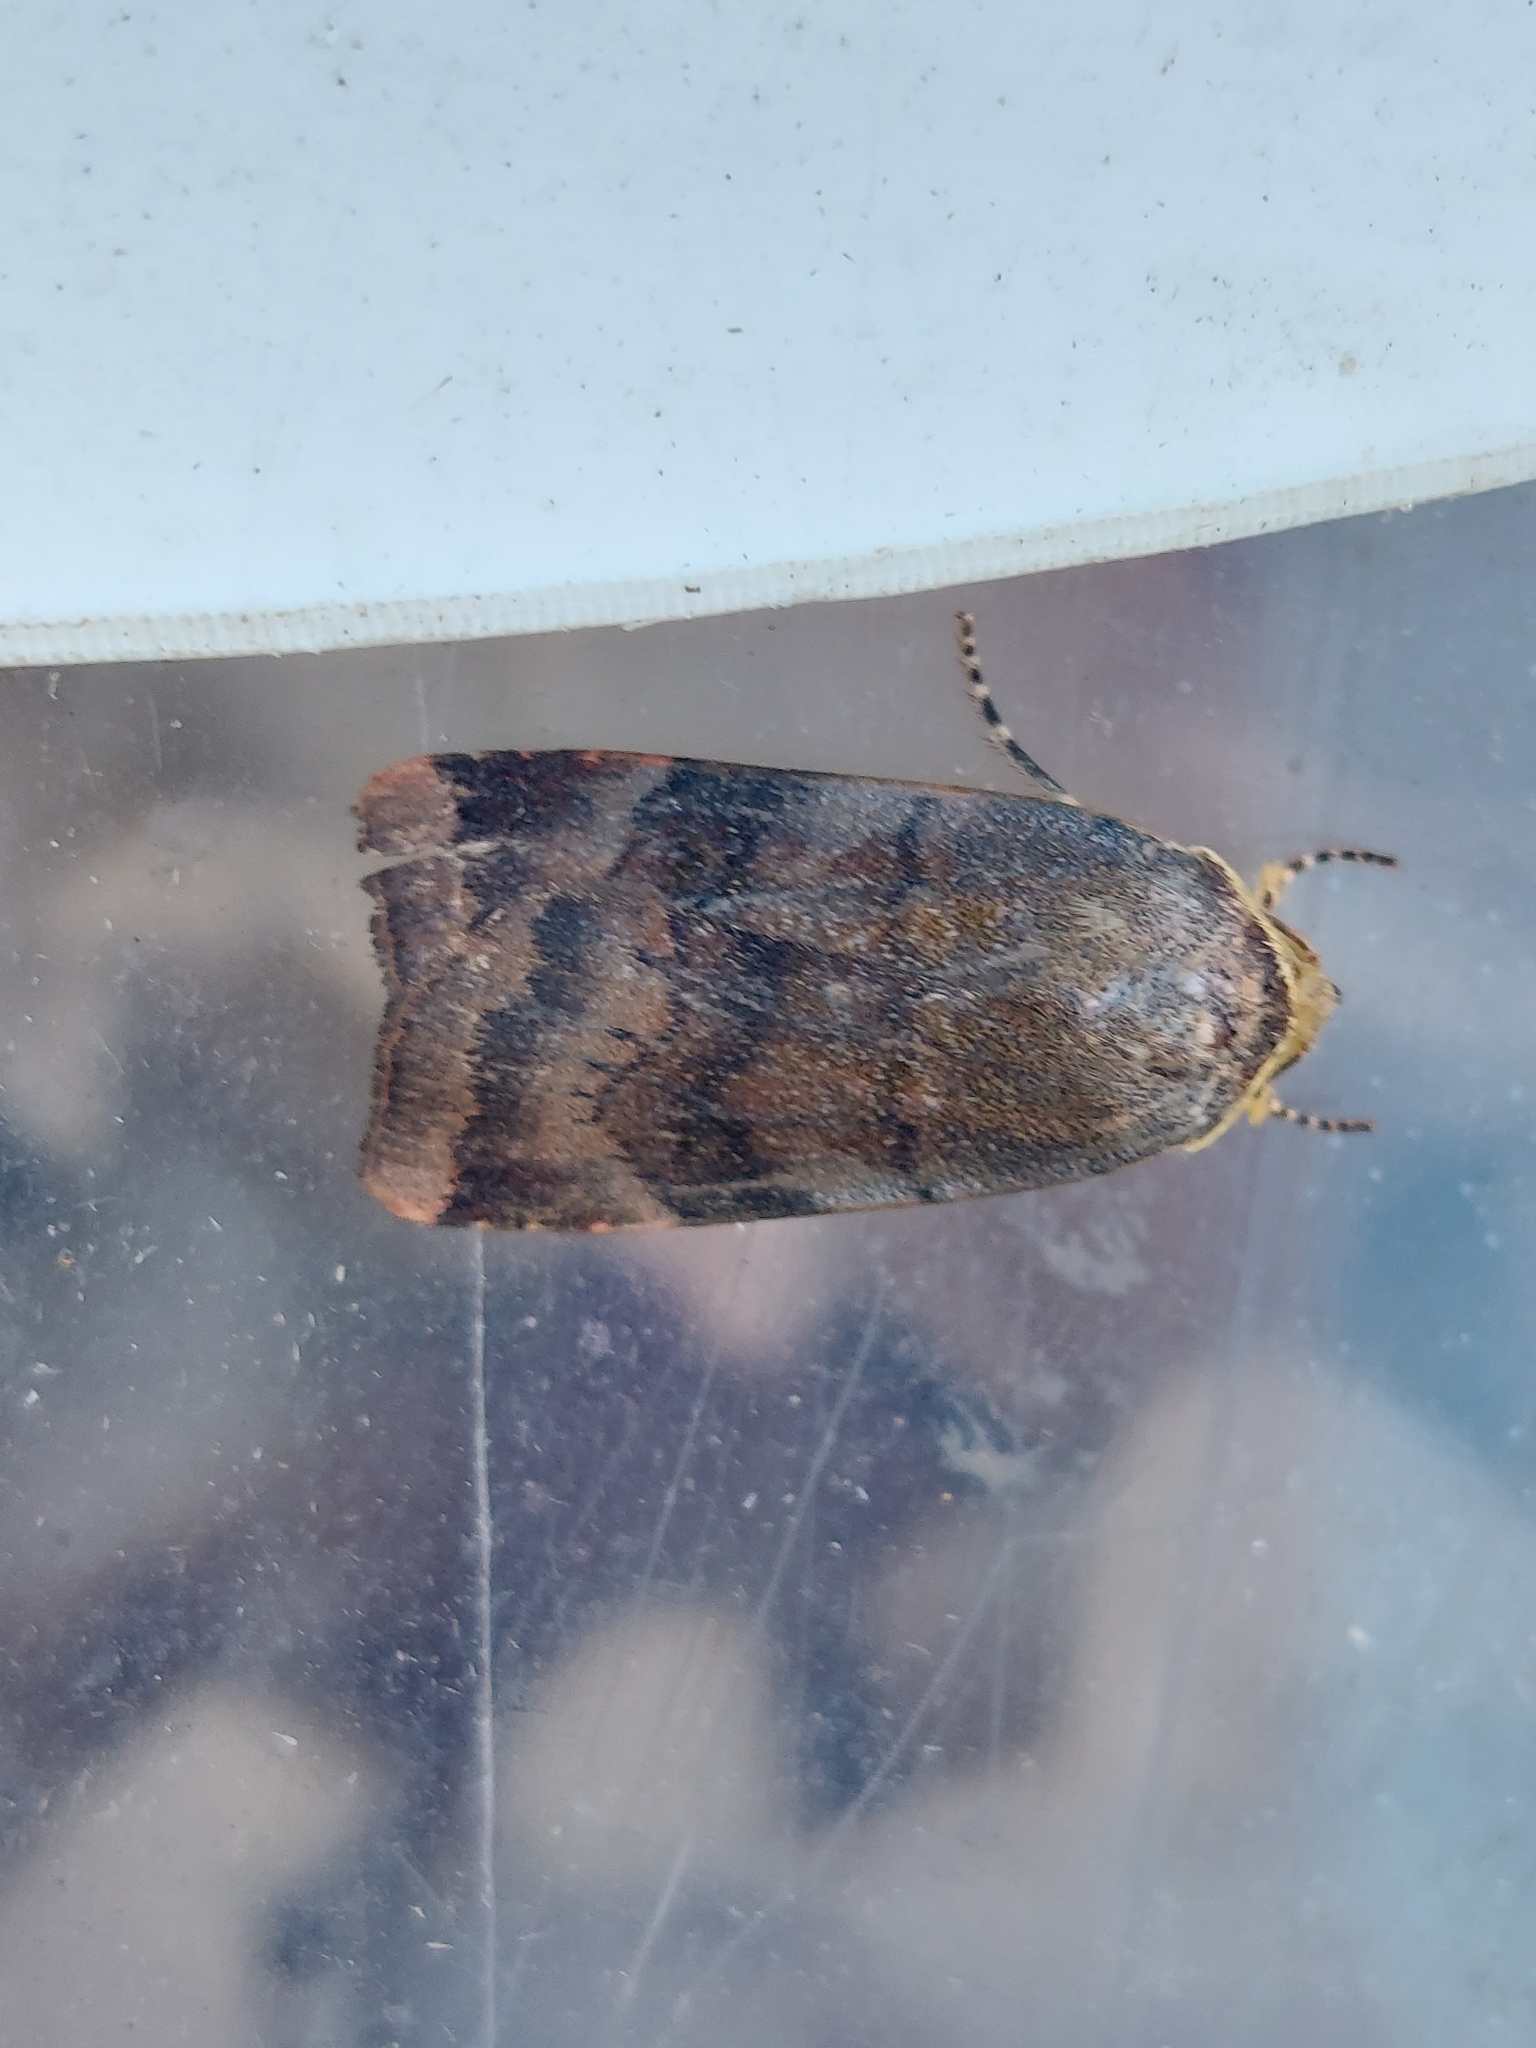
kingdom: Animalia
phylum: Arthropoda
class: Insecta
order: Lepidoptera
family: Noctuidae
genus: Noctua
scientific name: Noctua janthe
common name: Lesser broad-bordered yellow underwing
